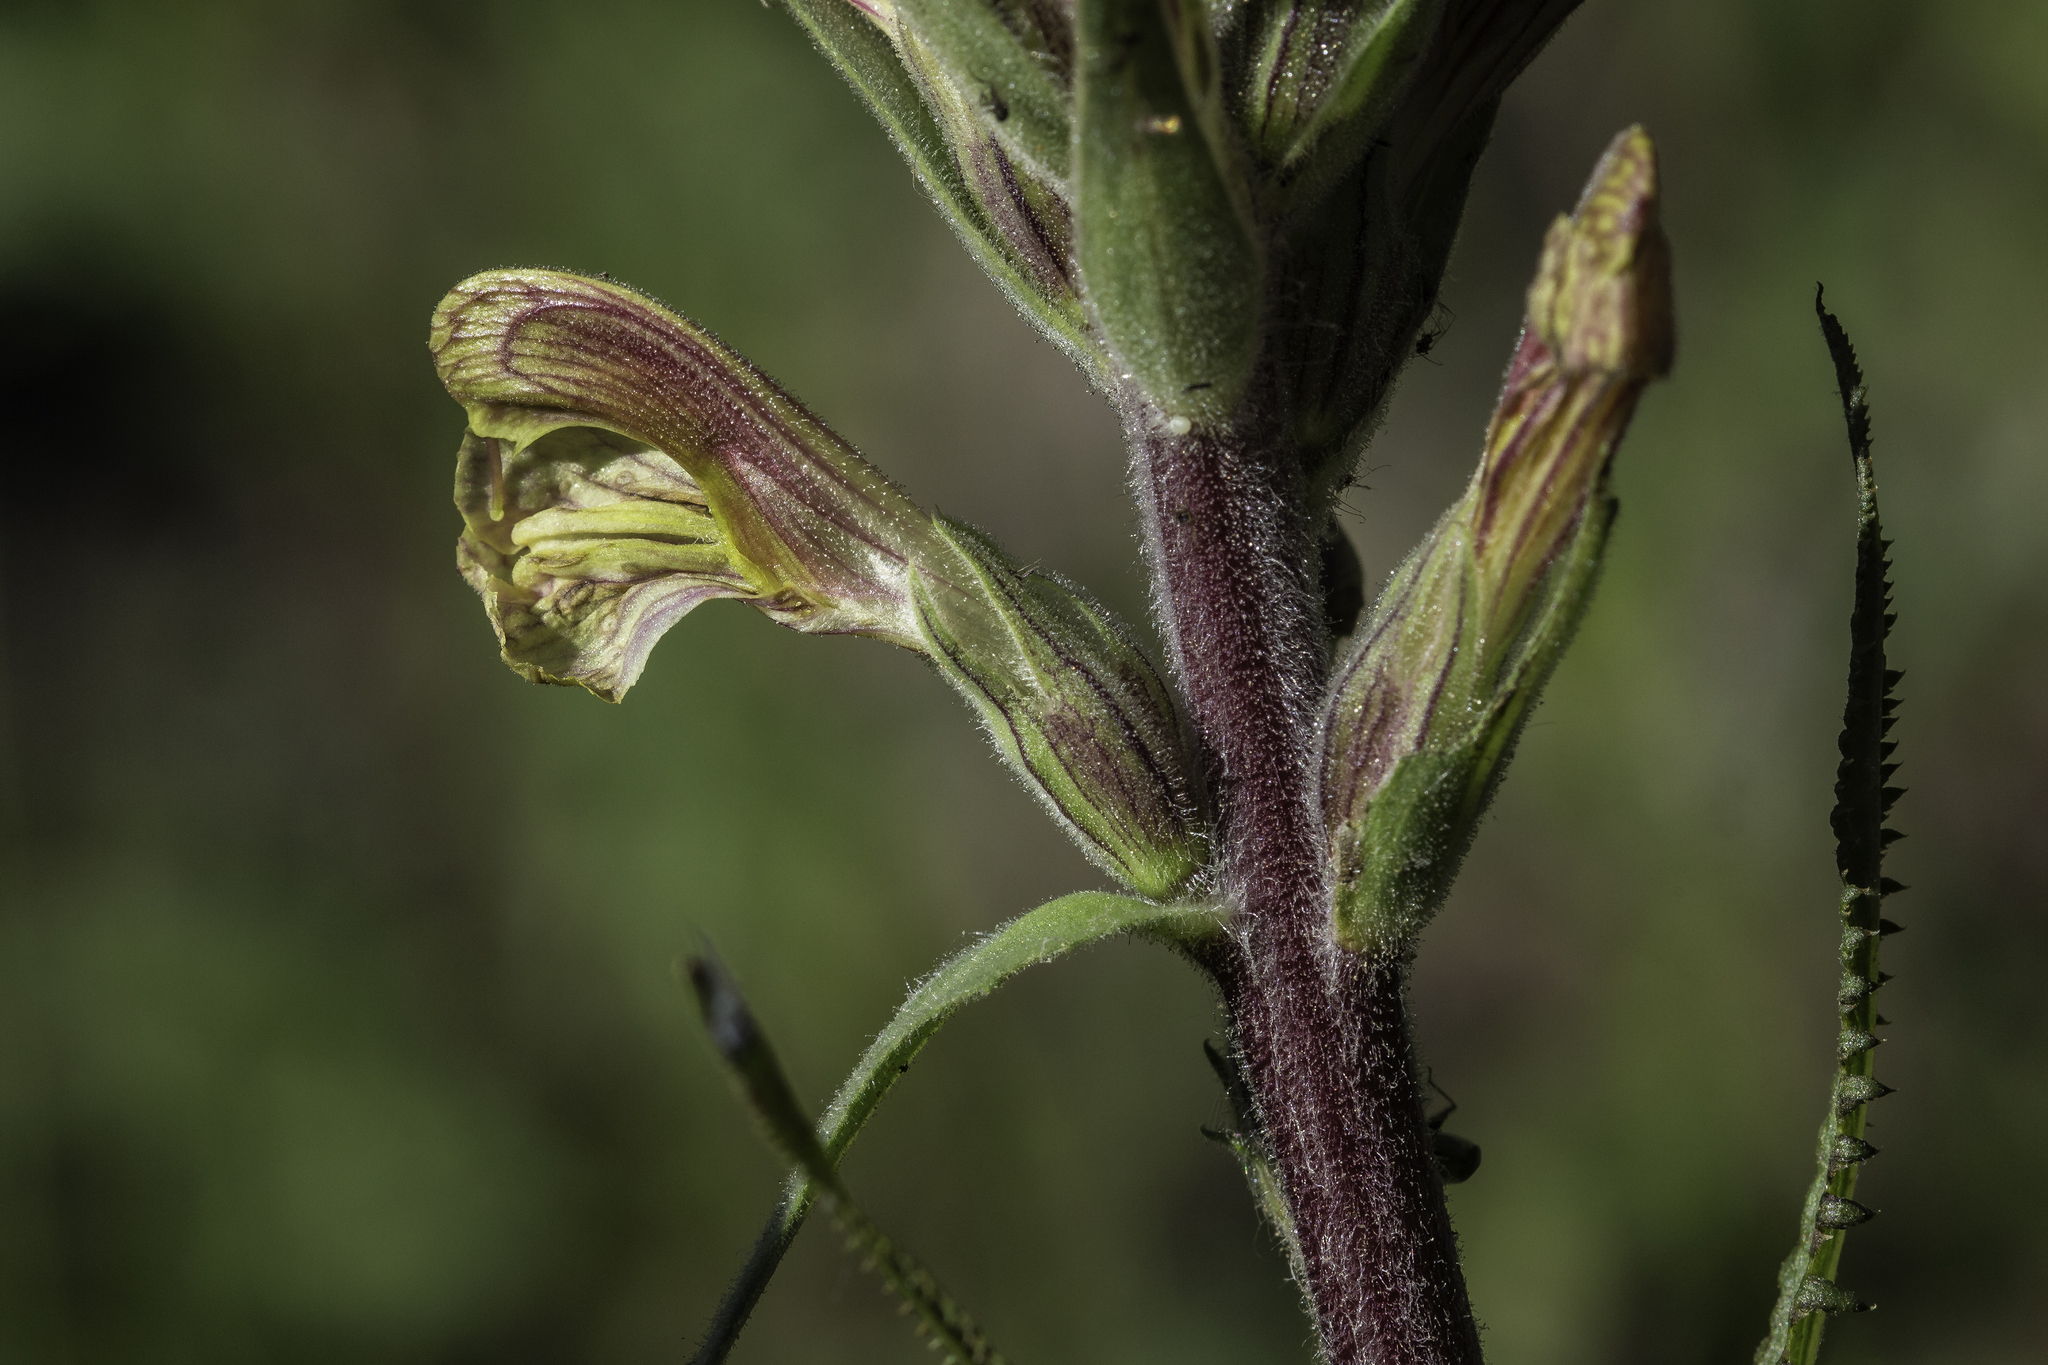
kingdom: Plantae
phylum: Tracheophyta
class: Magnoliopsida
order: Lamiales
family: Orobanchaceae
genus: Pedicularis
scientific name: Pedicularis procera
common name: Gray's lousewort
